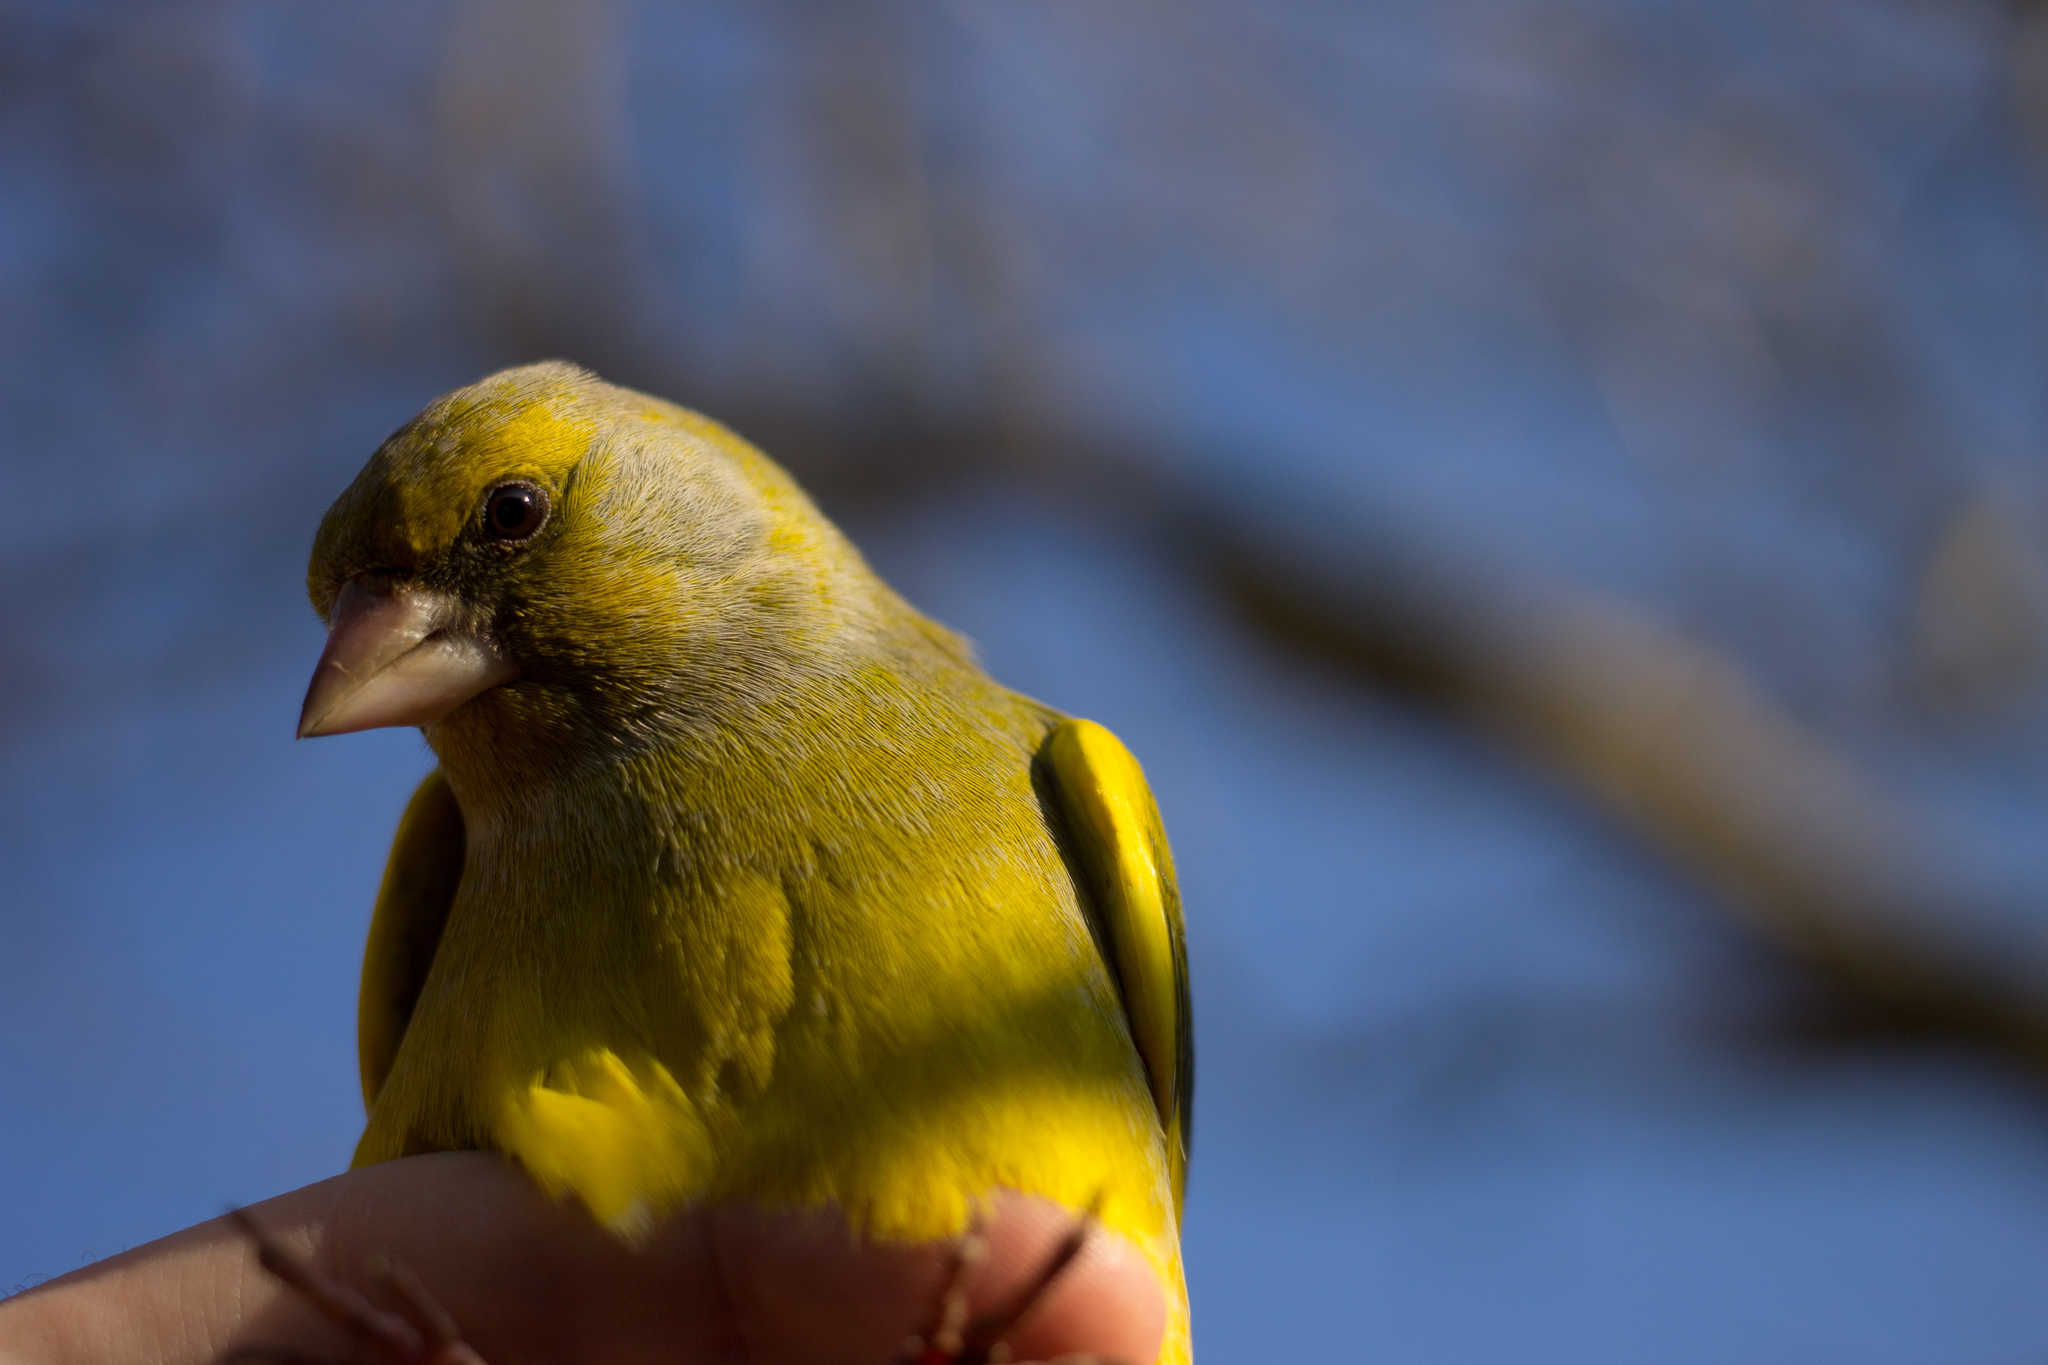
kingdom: Plantae
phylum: Tracheophyta
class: Liliopsida
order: Poales
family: Poaceae
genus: Chloris
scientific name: Chloris chloris
